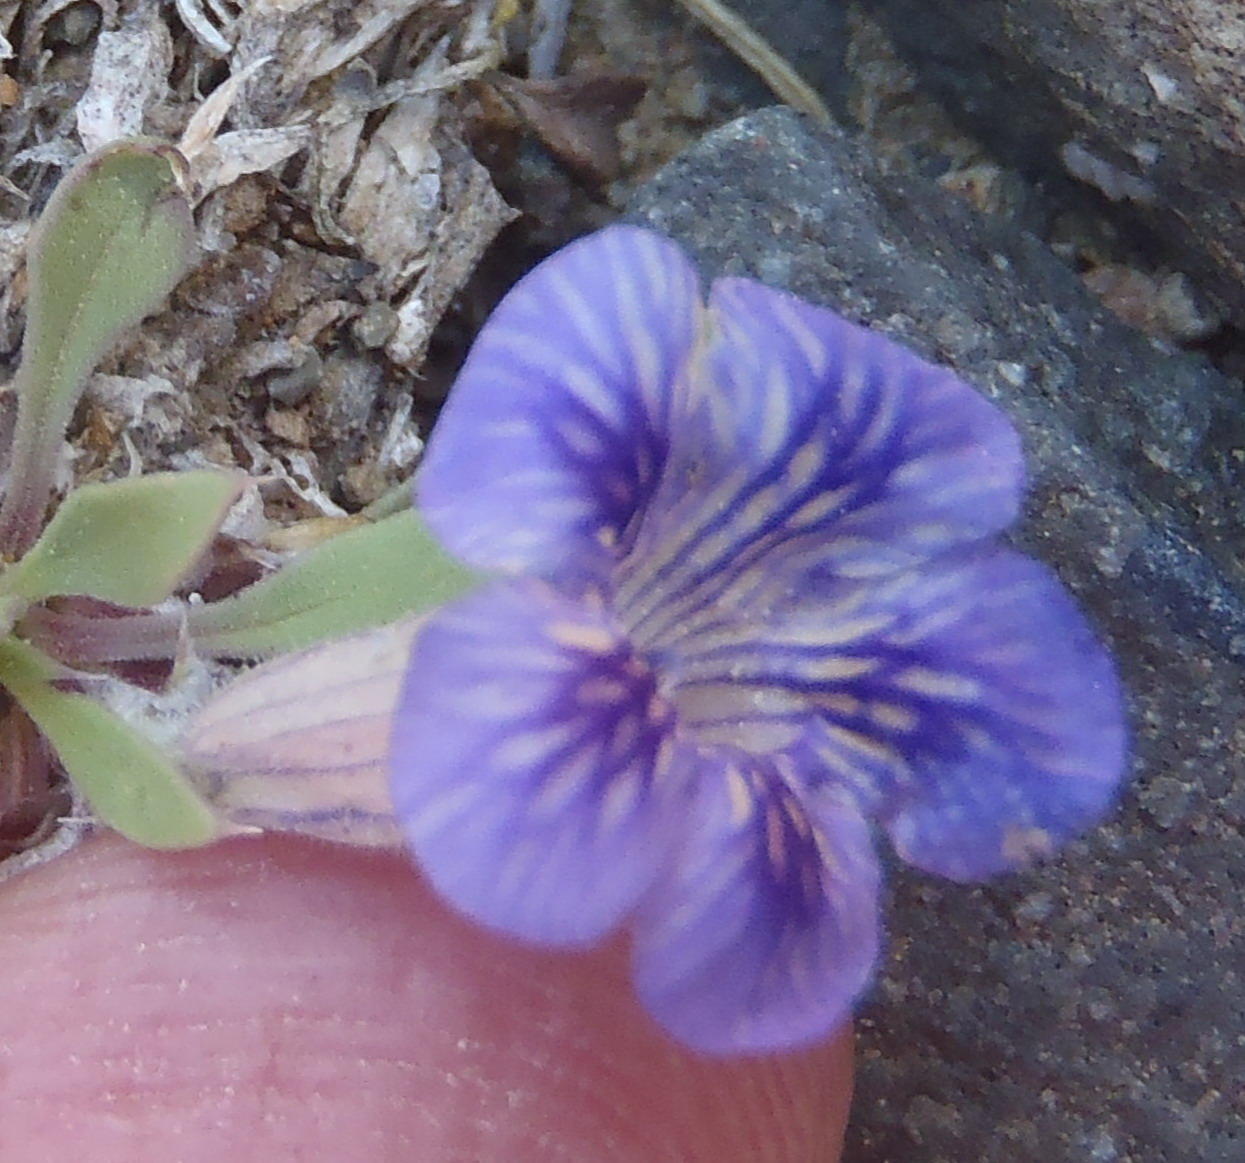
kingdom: Plantae
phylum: Tracheophyta
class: Magnoliopsida
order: Lamiales
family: Scrophulariaceae
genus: Aptosimum
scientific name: Aptosimum indivisum
